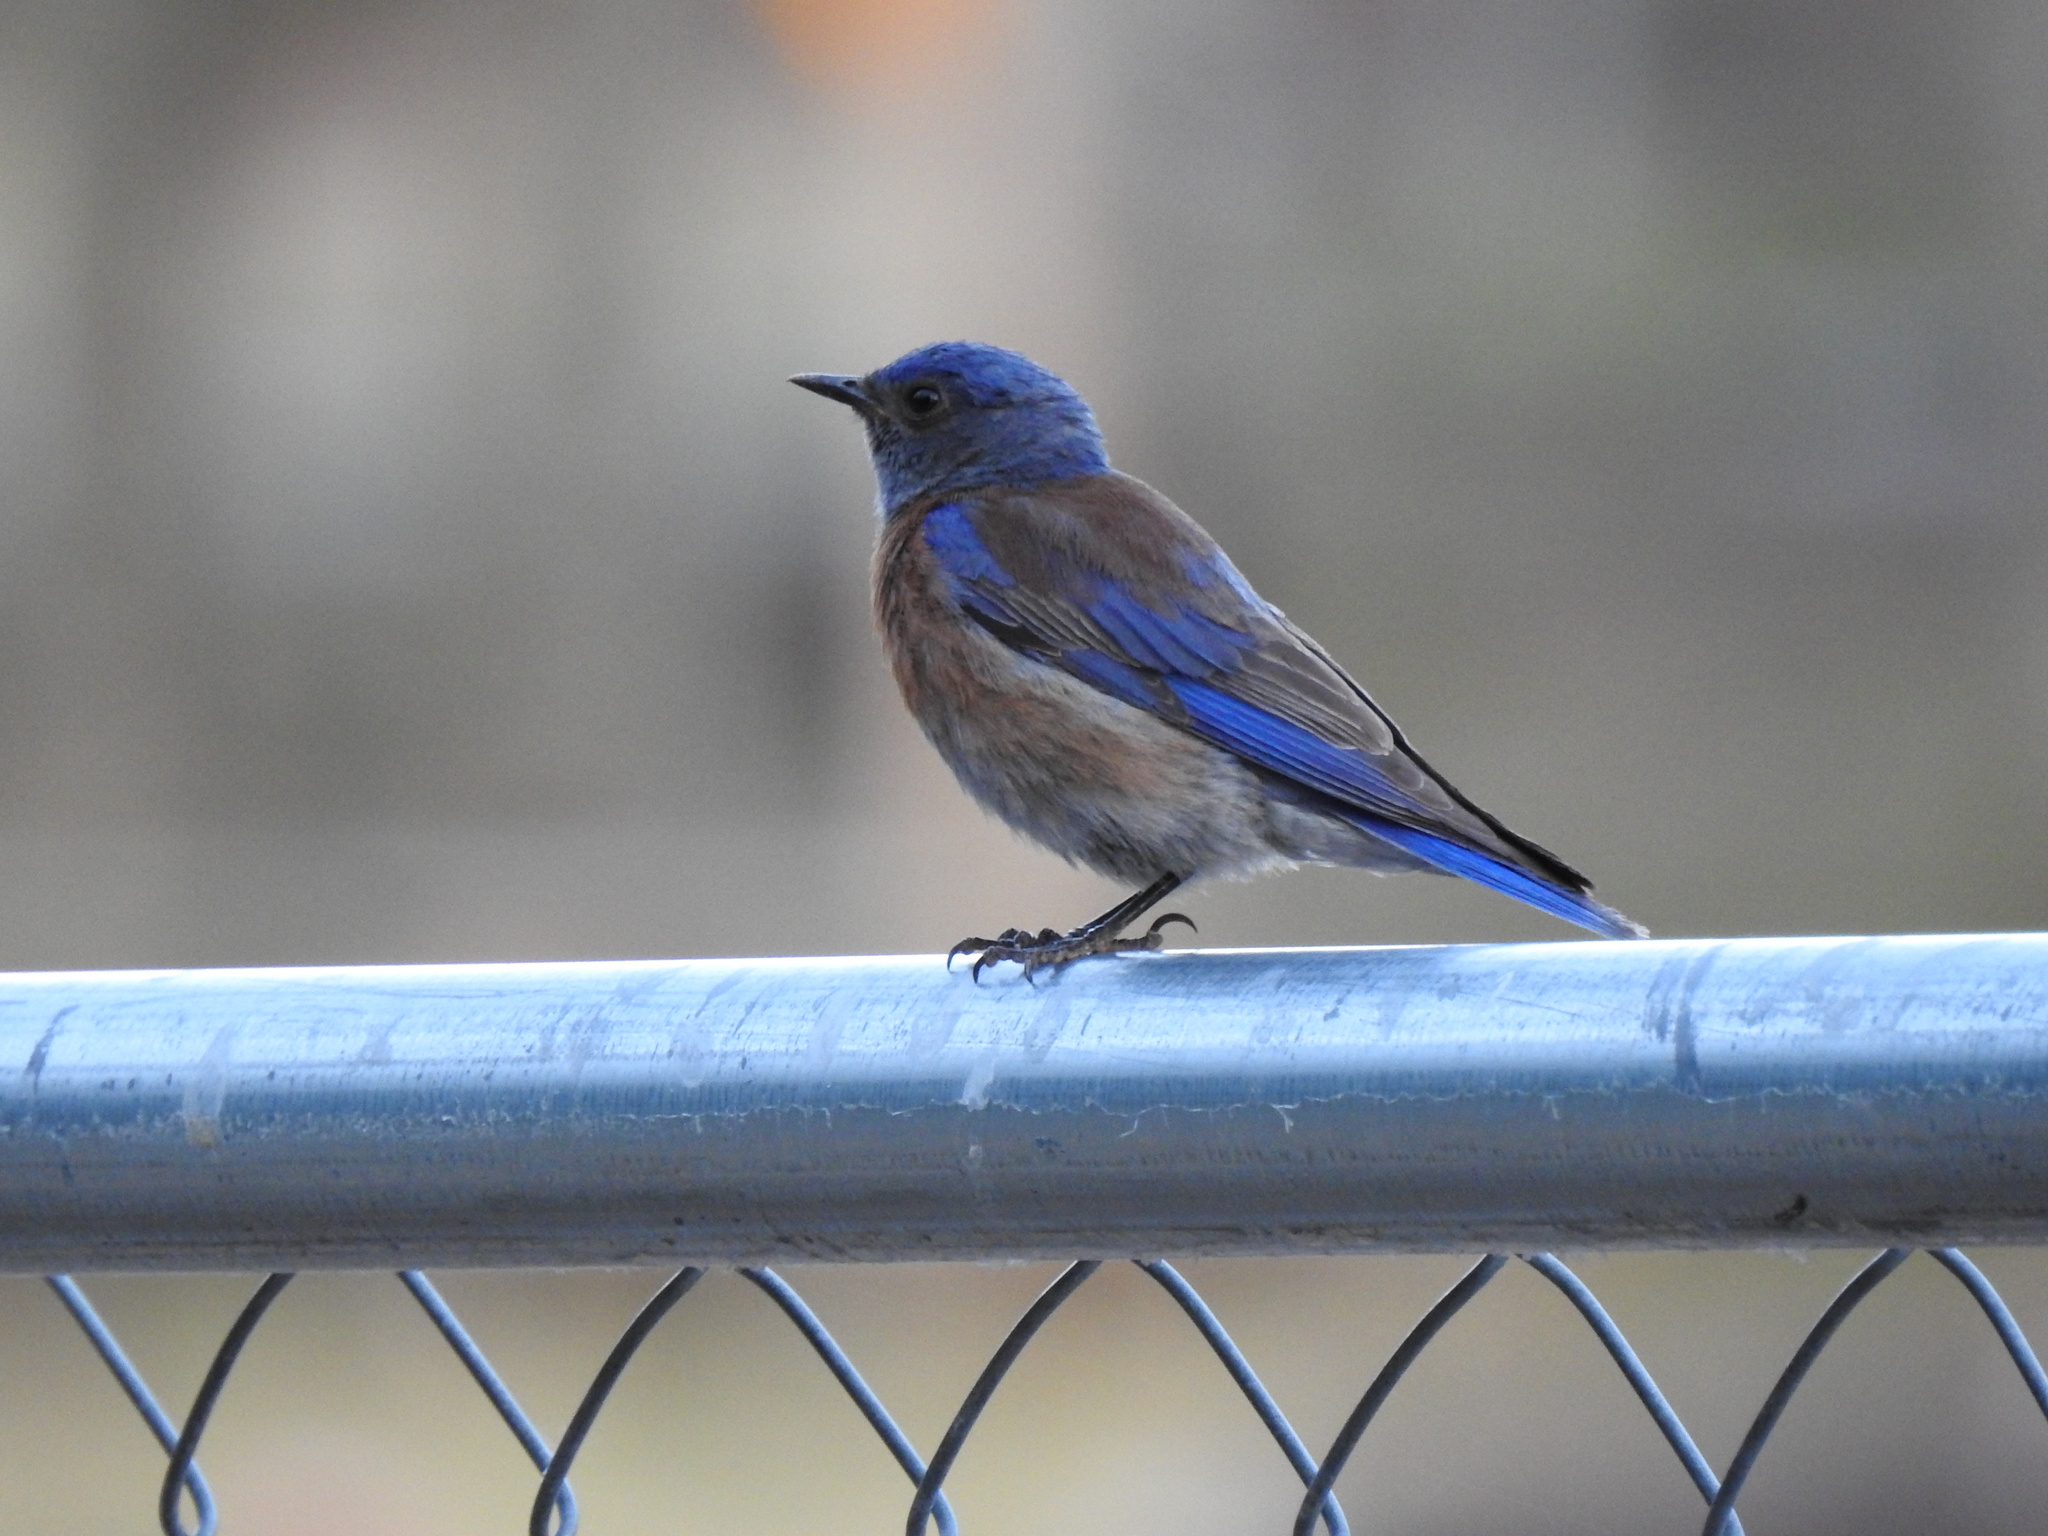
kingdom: Animalia
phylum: Chordata
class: Aves
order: Passeriformes
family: Turdidae
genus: Sialia
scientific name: Sialia mexicana
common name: Western bluebird
